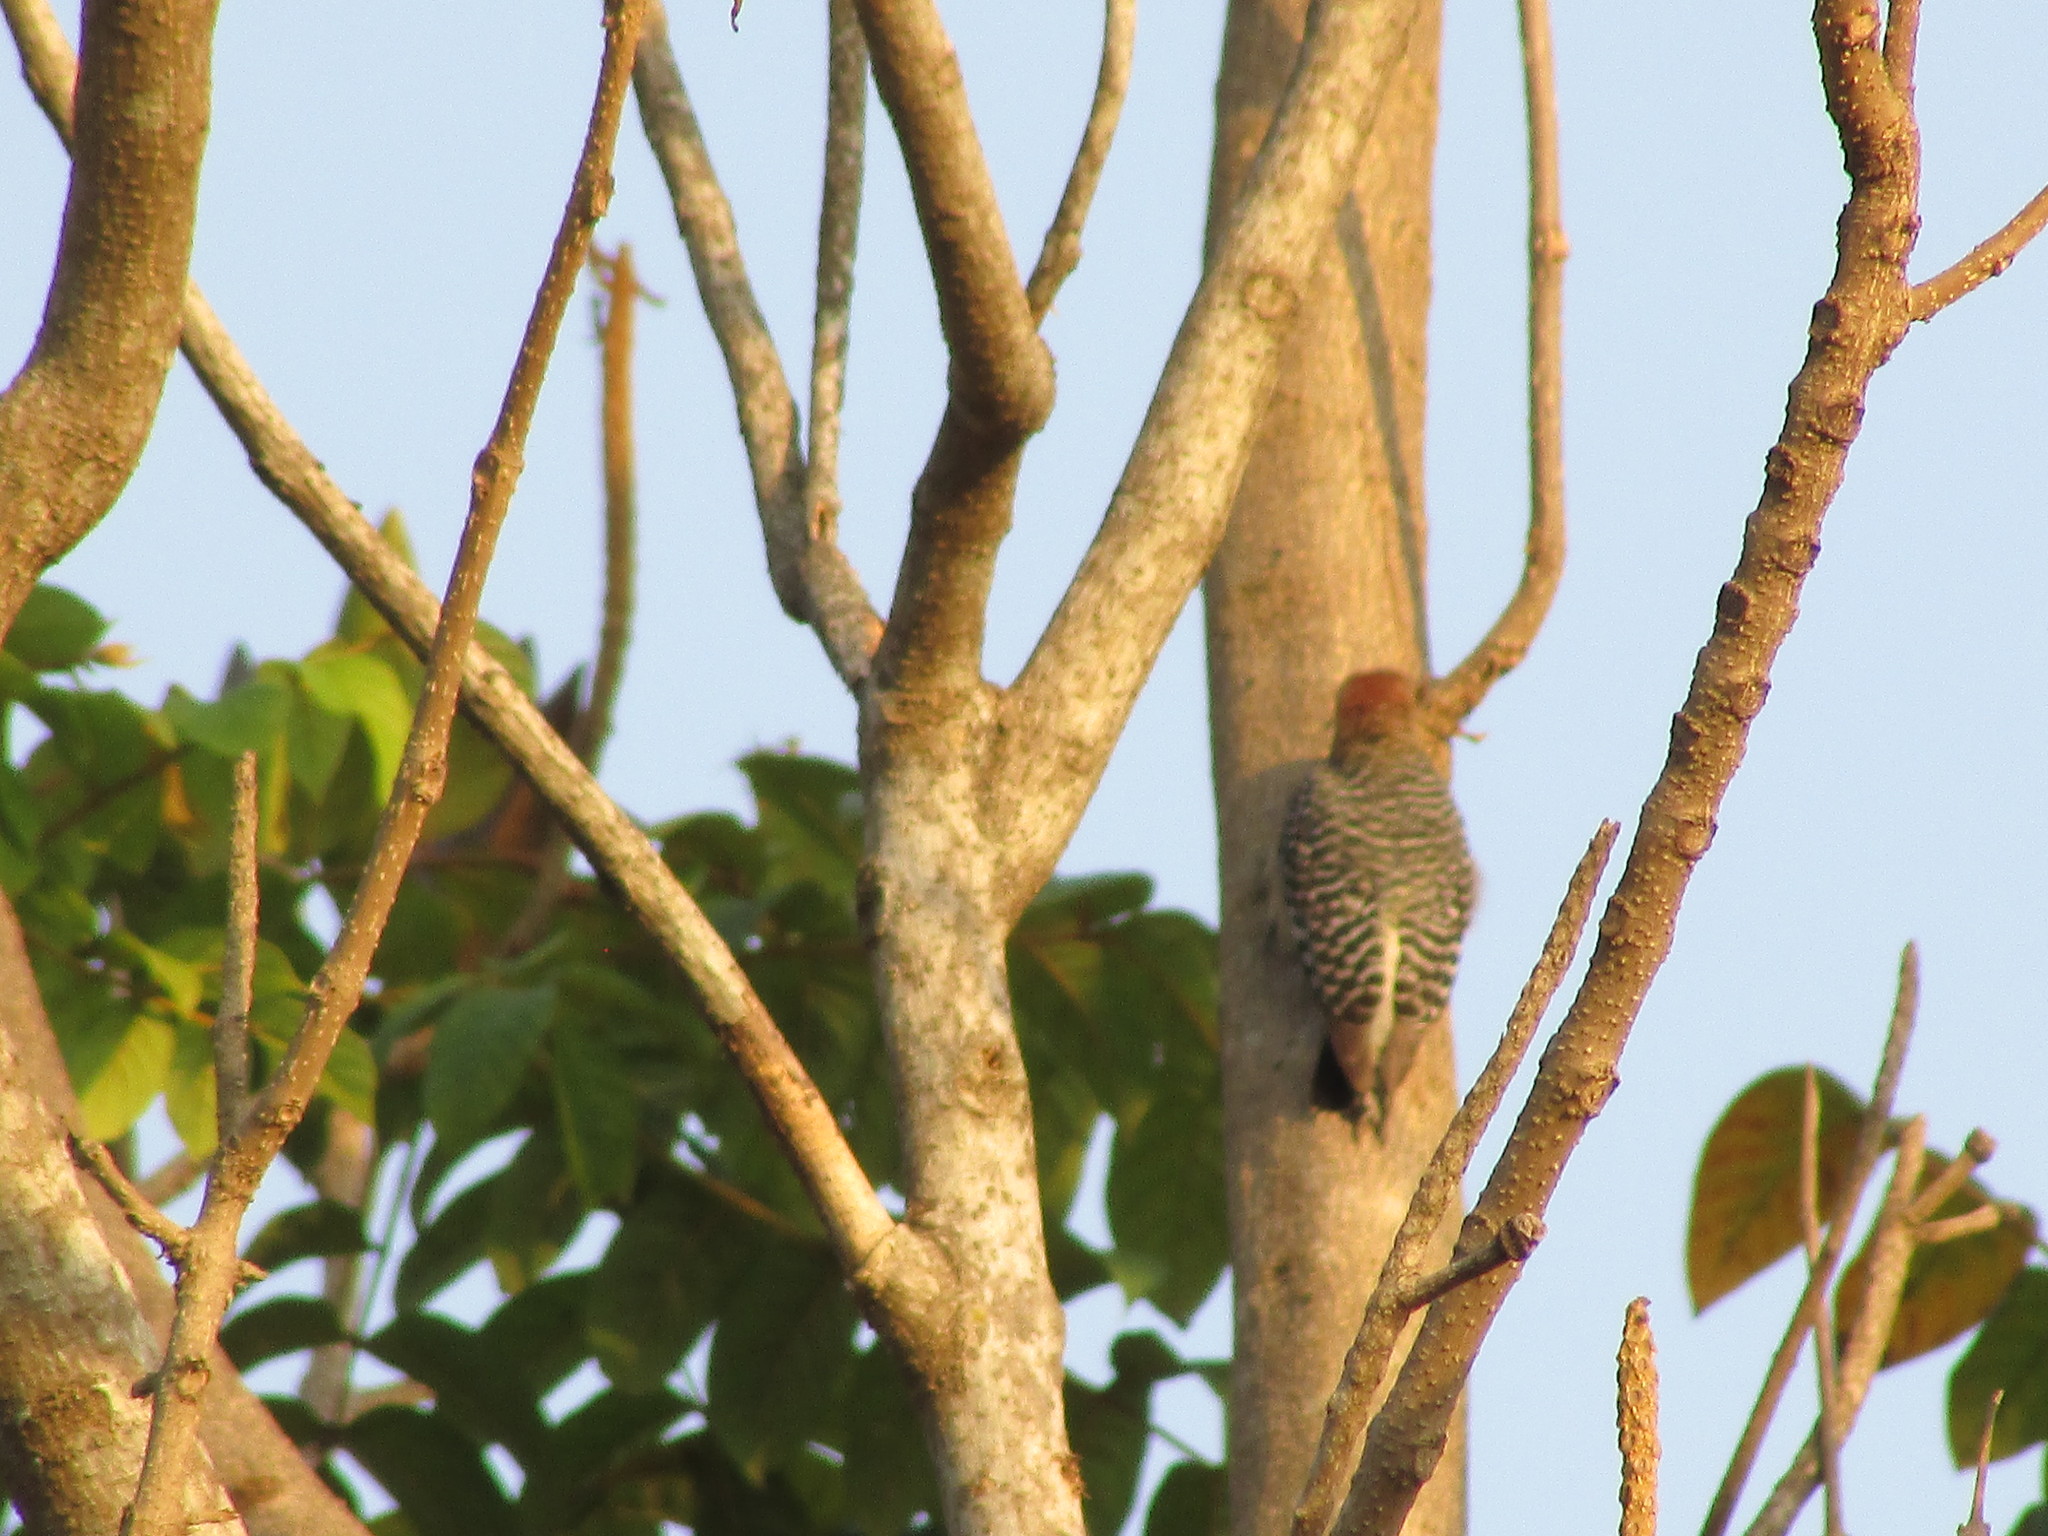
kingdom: Animalia
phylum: Chordata
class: Aves
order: Piciformes
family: Picidae
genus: Melanerpes
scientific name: Melanerpes rubricapillus
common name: Red-crowned woodpecker
